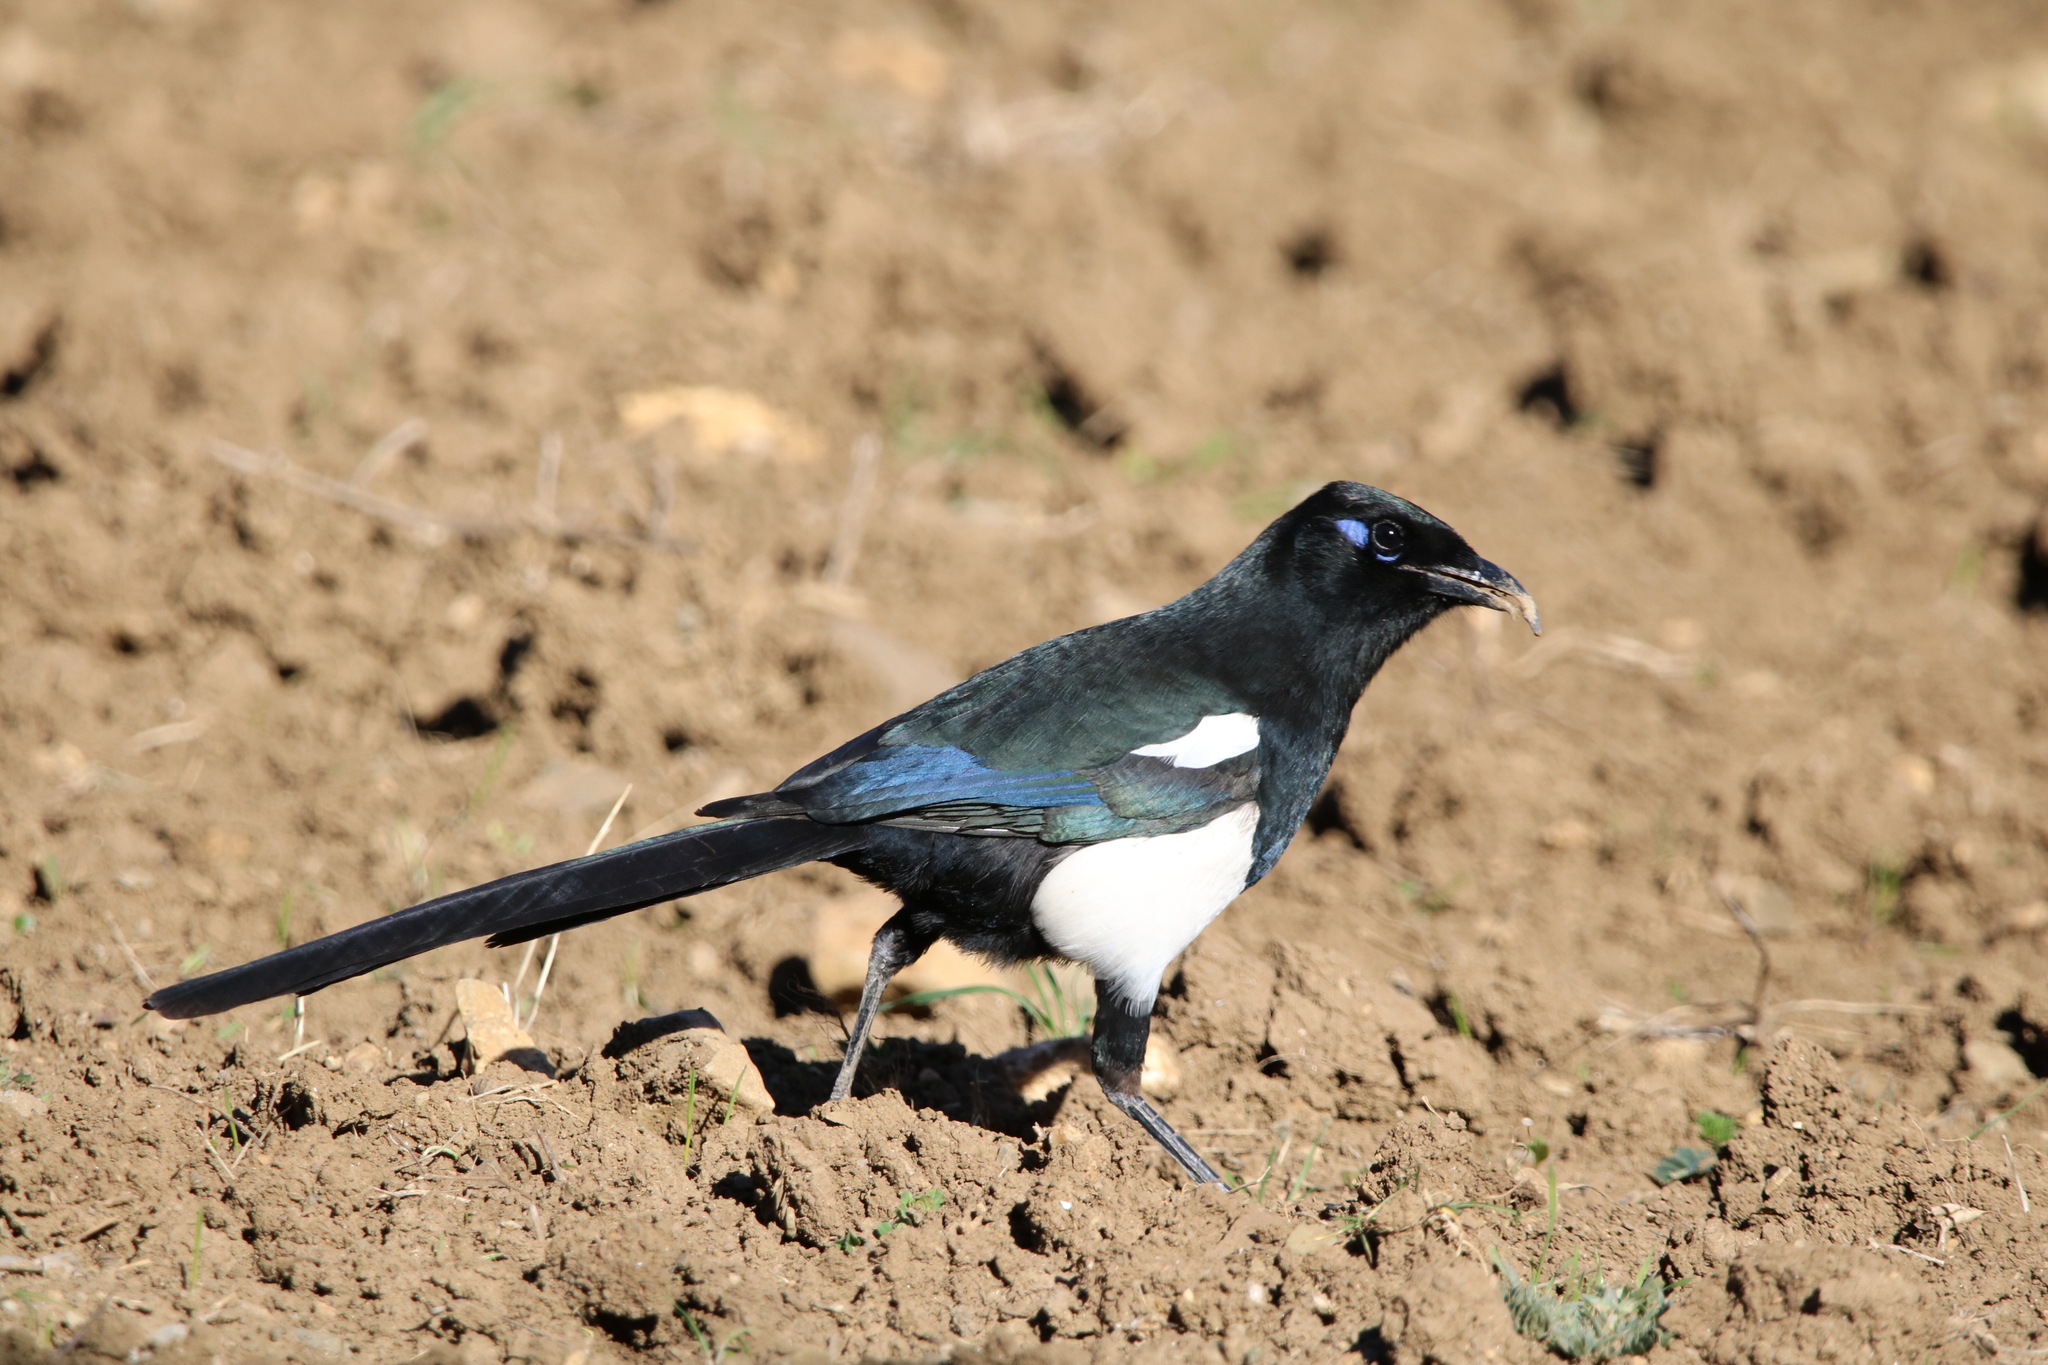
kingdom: Animalia
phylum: Chordata
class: Aves
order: Passeriformes
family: Corvidae
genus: Pica
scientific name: Pica mauritanica
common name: Maghreb magpie
